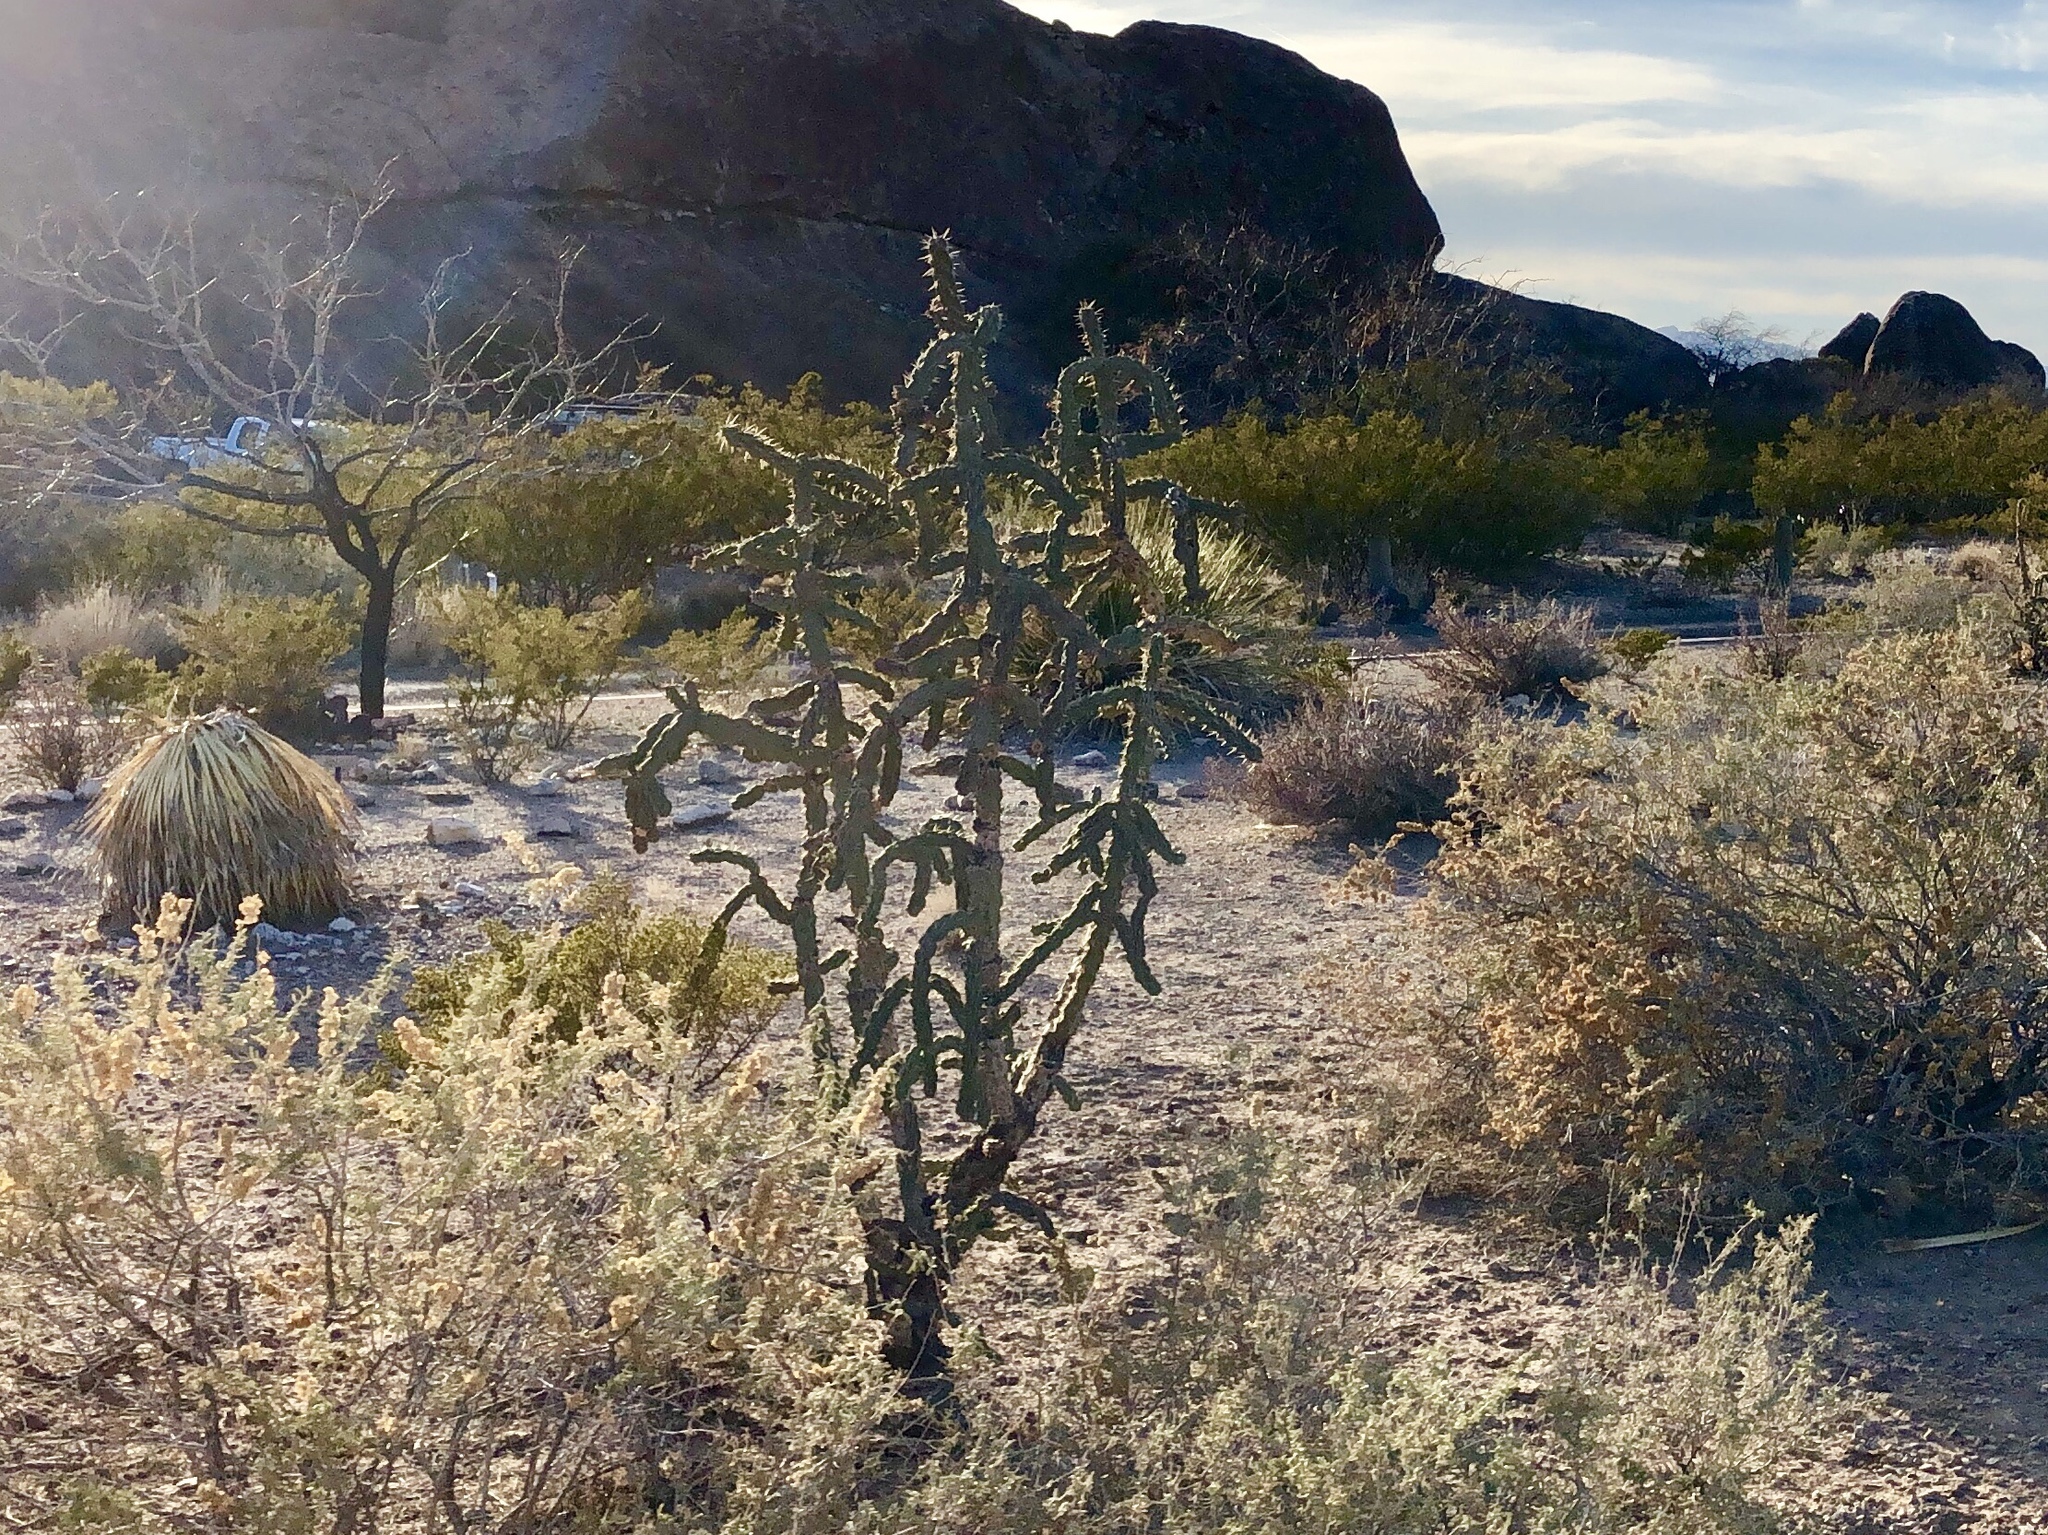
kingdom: Plantae
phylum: Tracheophyta
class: Magnoliopsida
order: Caryophyllales
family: Cactaceae
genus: Cylindropuntia
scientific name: Cylindropuntia imbricata
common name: Candelabrum cactus
